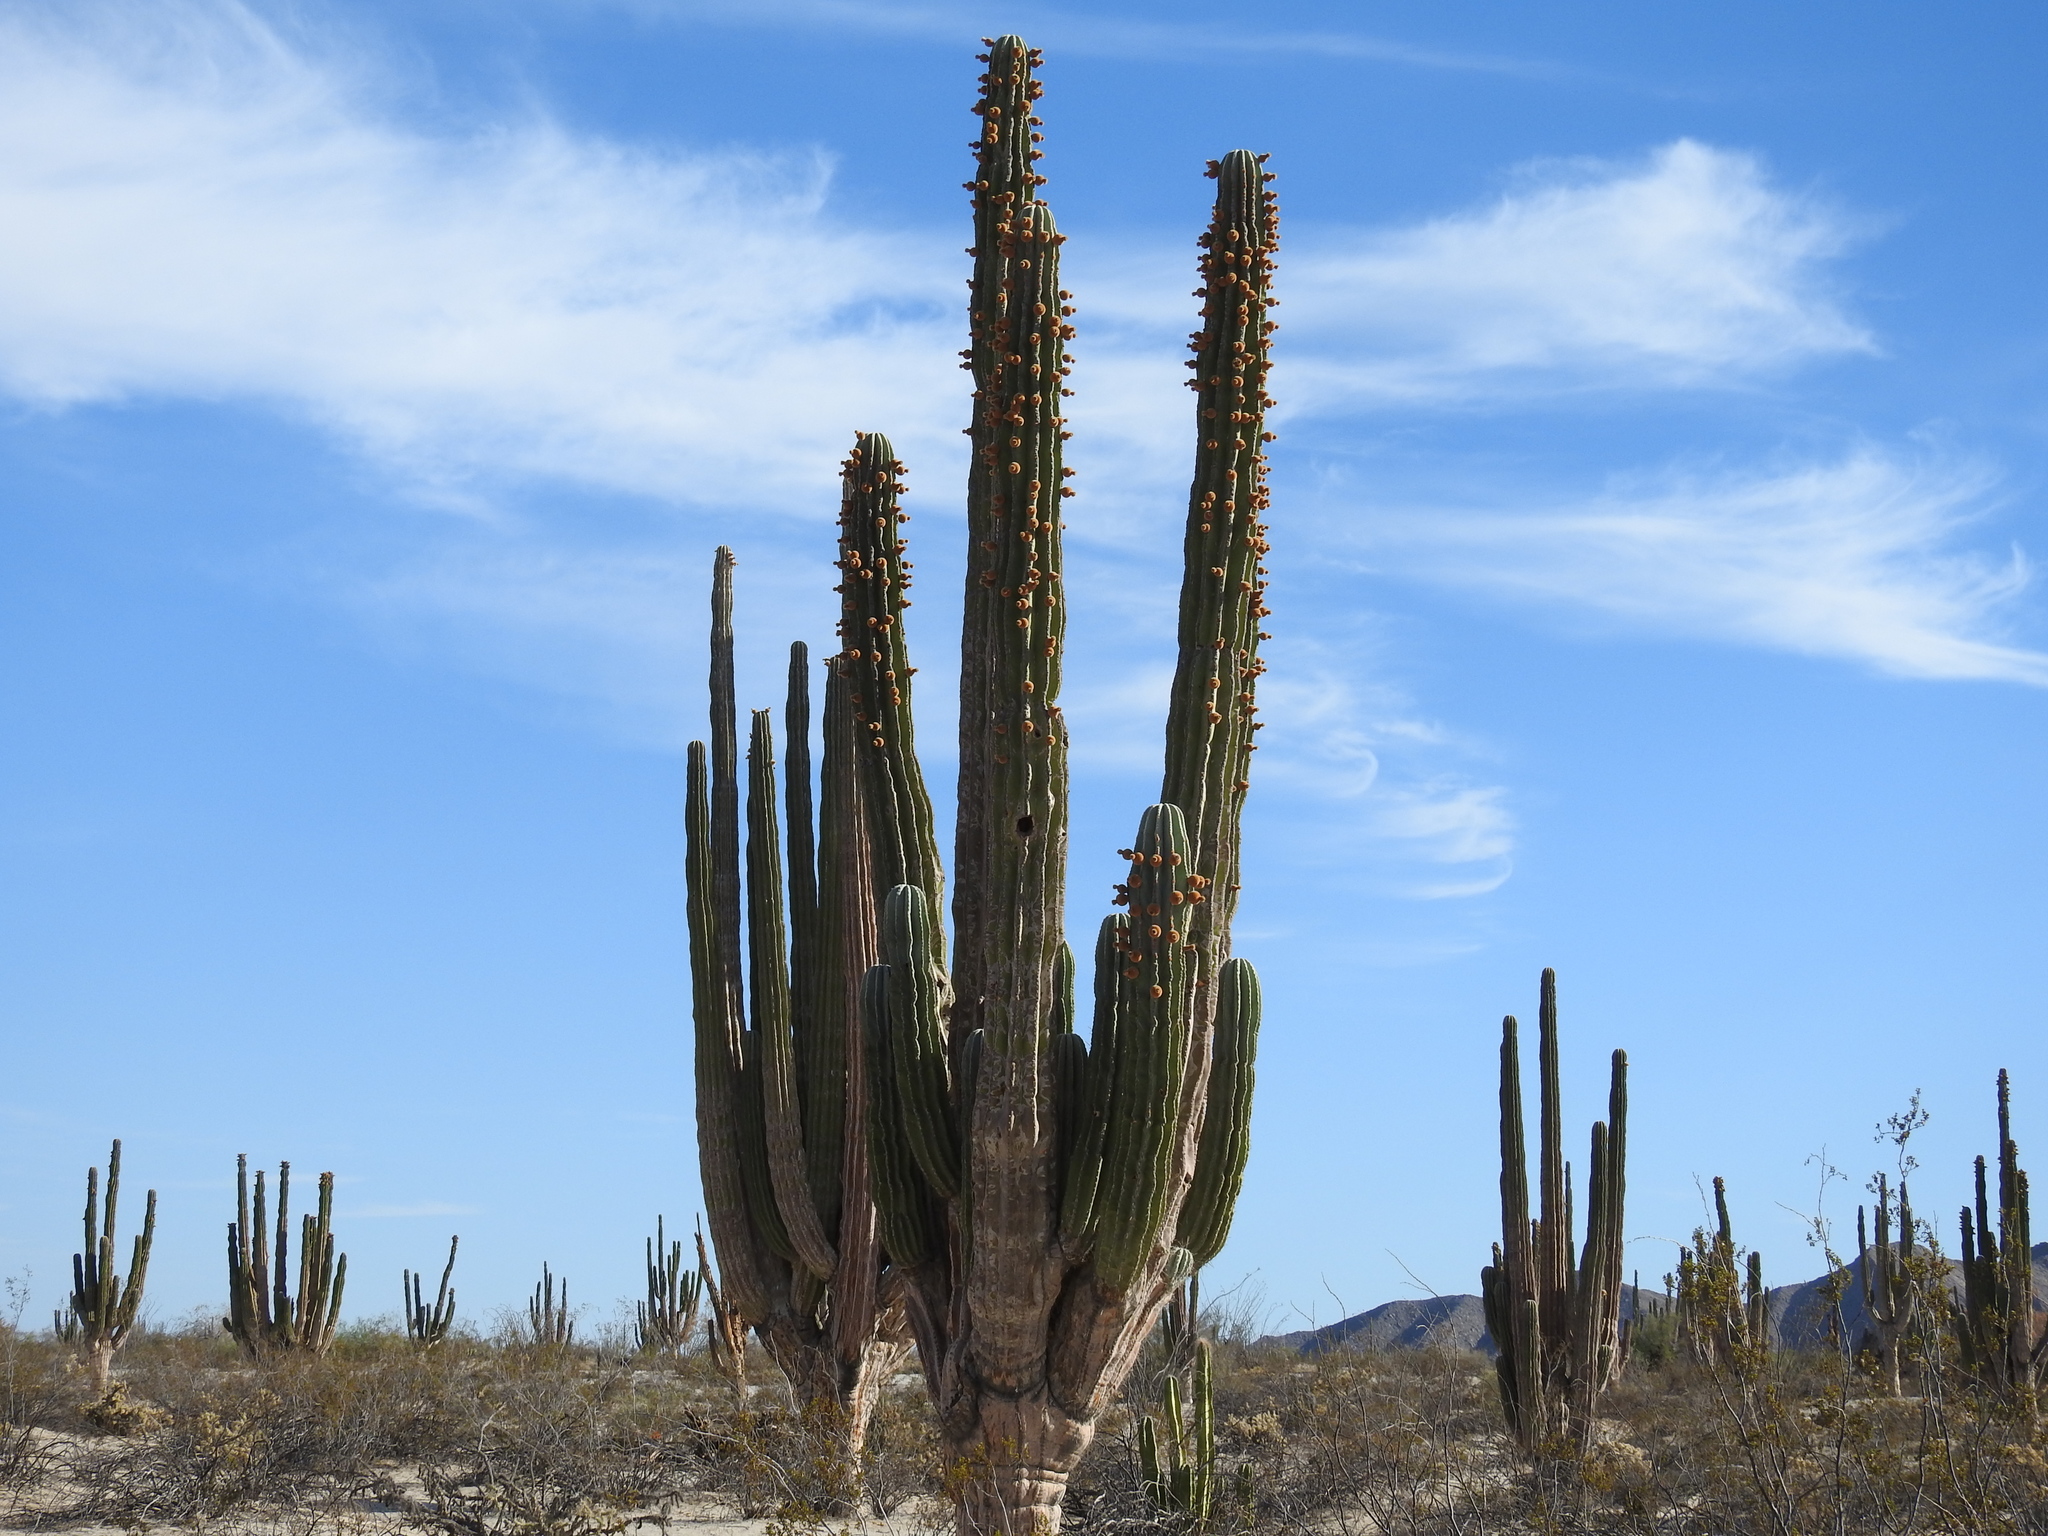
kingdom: Plantae
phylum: Tracheophyta
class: Magnoliopsida
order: Caryophyllales
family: Cactaceae
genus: Pachycereus
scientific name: Pachycereus pringlei
